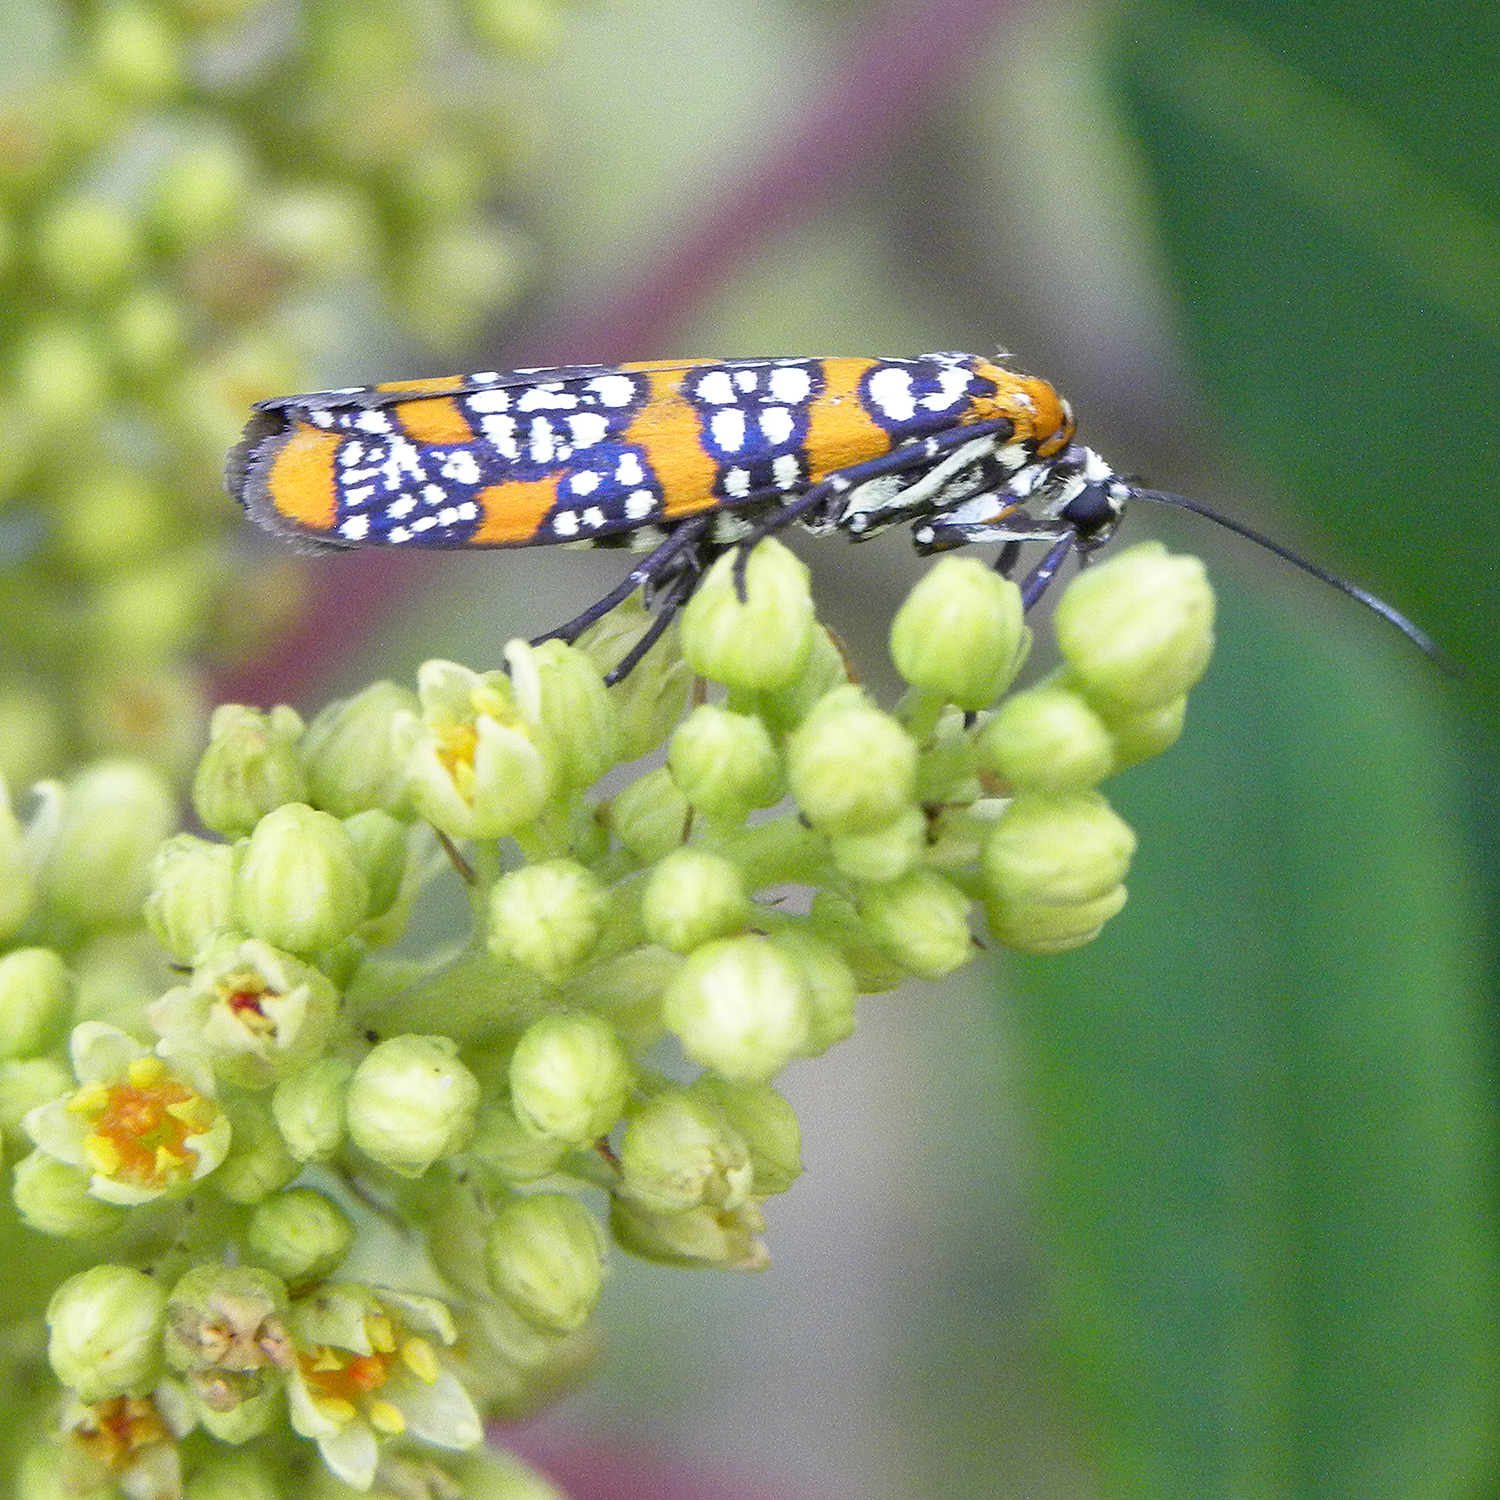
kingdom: Animalia
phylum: Arthropoda
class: Insecta
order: Lepidoptera
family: Attevidae
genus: Atteva
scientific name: Atteva punctella
